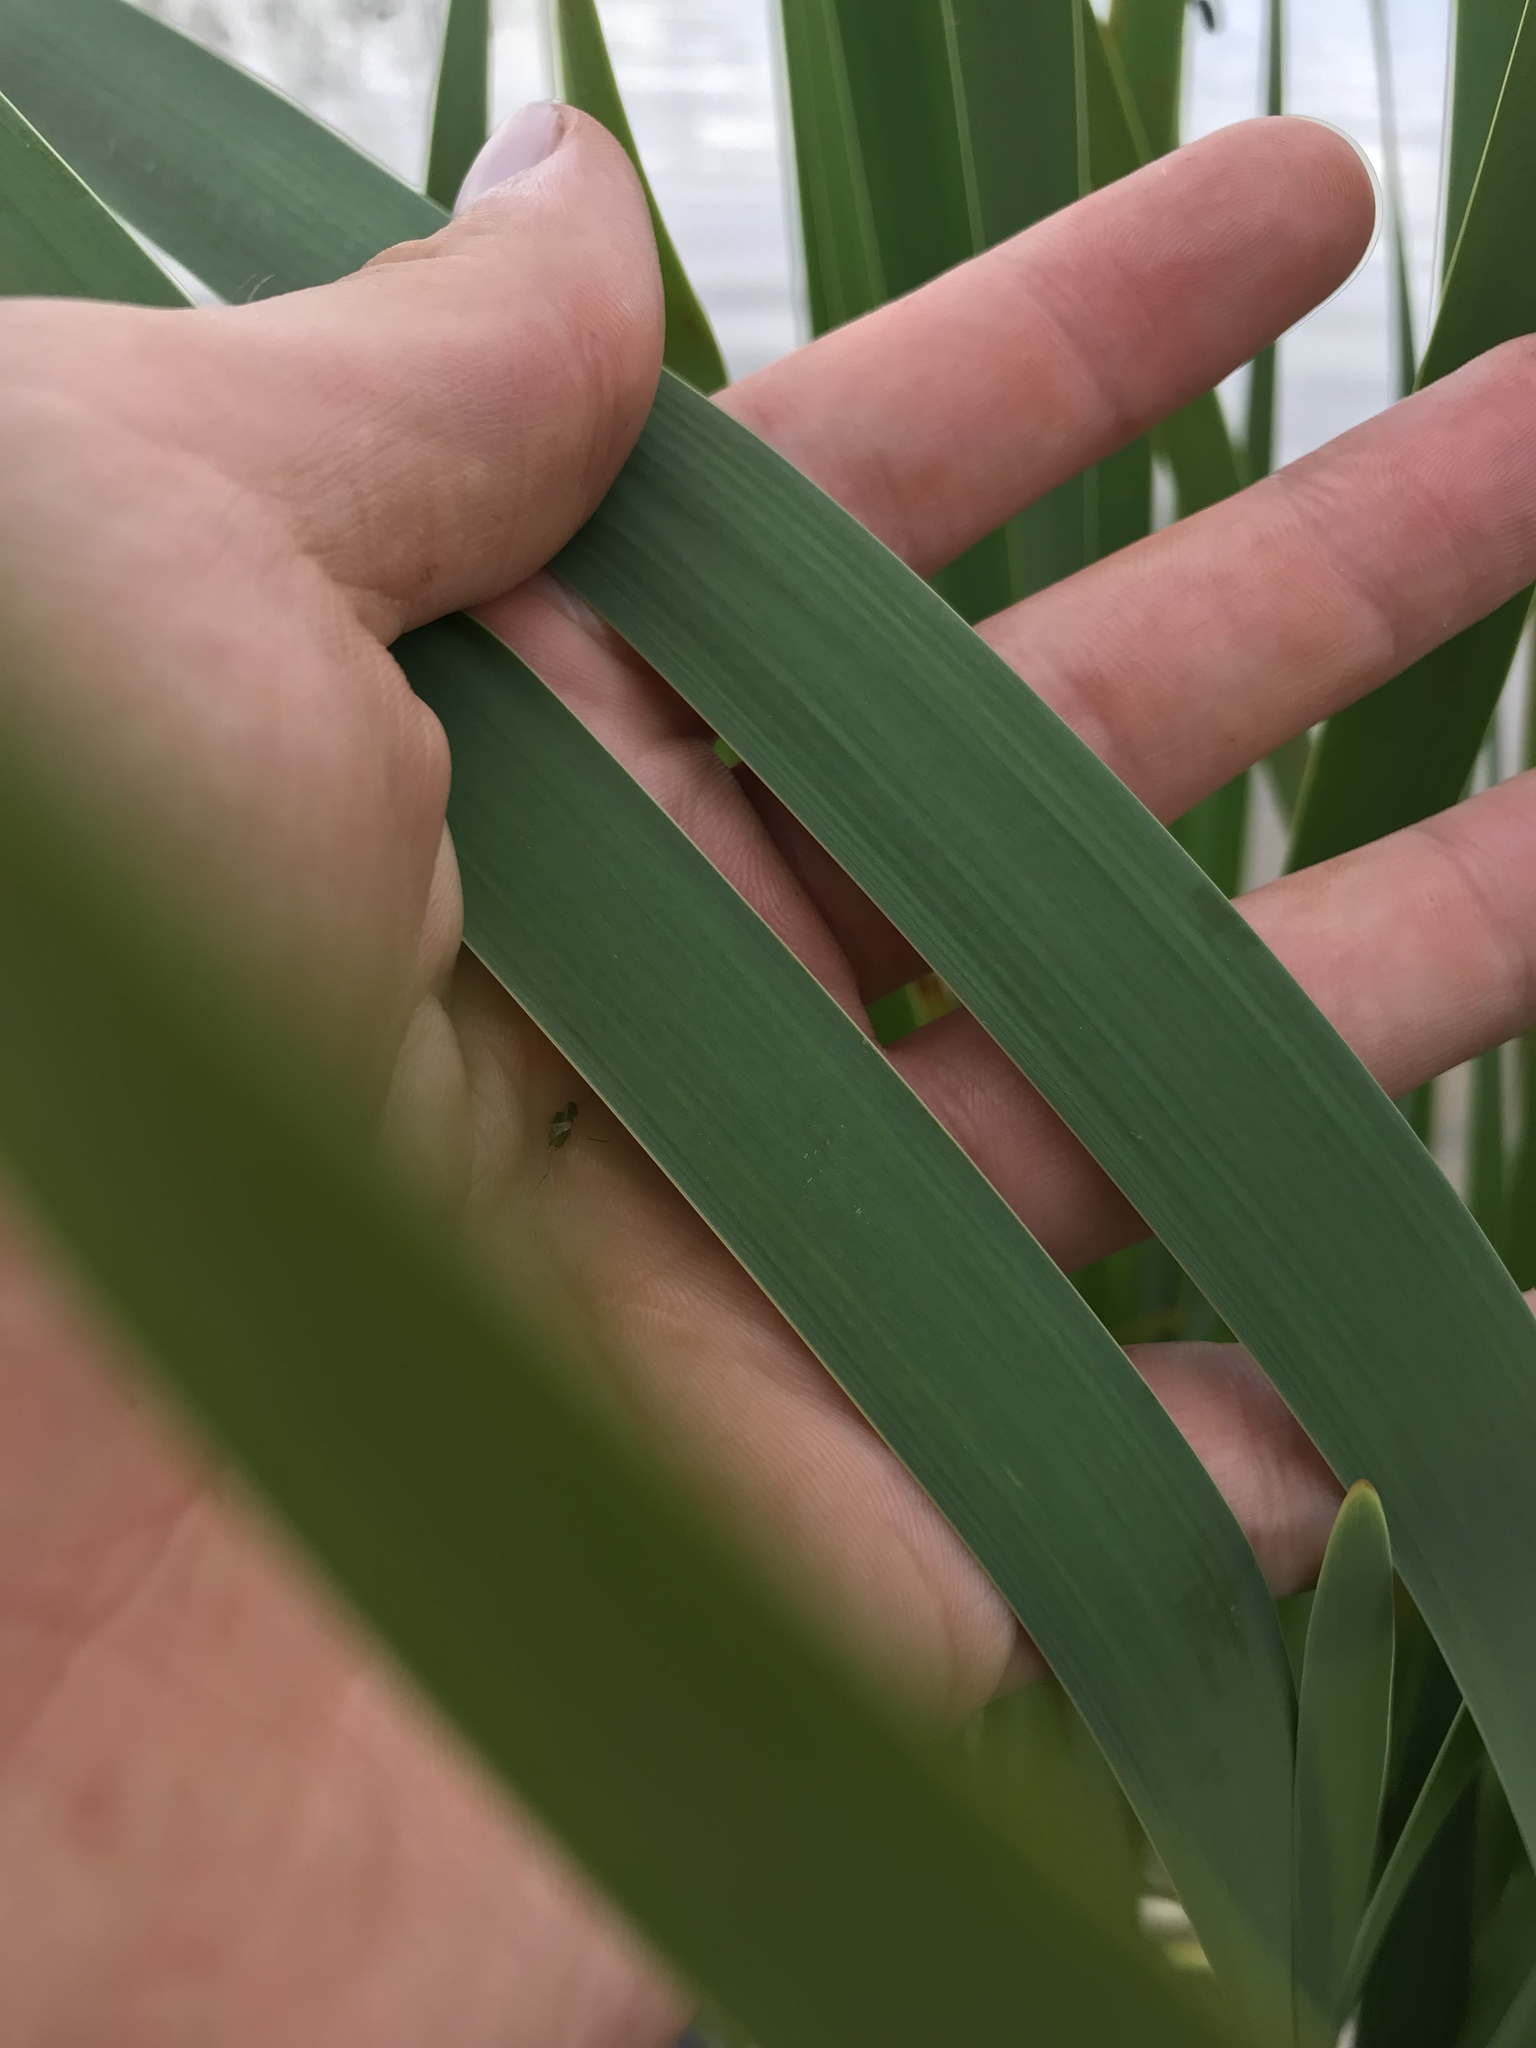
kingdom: Plantae
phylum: Tracheophyta
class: Liliopsida
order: Poales
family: Typhaceae
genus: Typha
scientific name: Typha latifolia
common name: Broadleaf cattail
